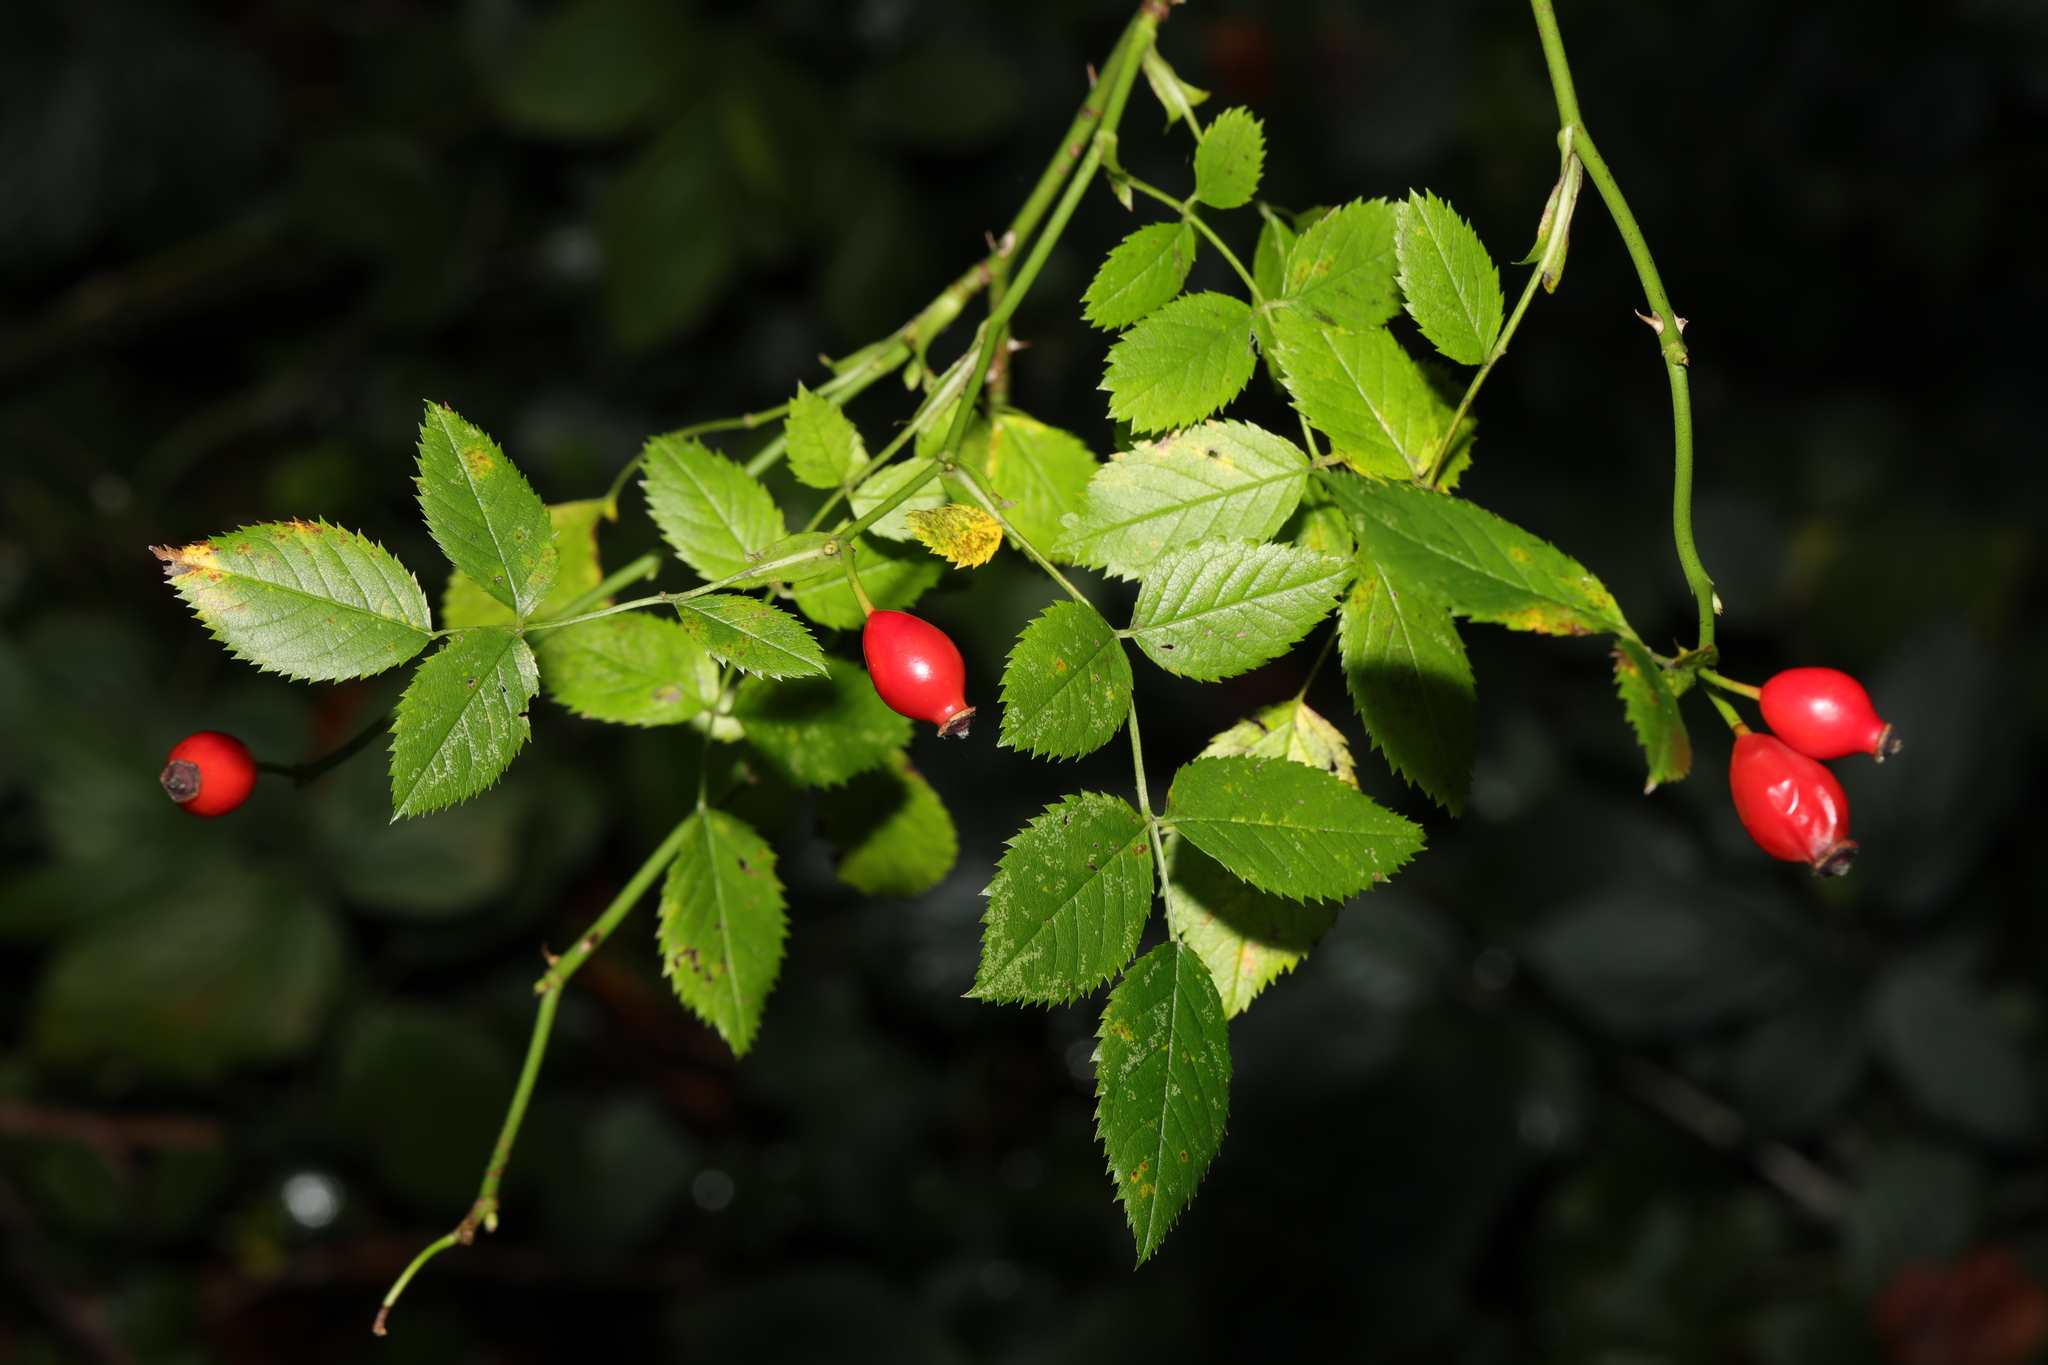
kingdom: Plantae
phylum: Tracheophyta
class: Magnoliopsida
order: Rosales
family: Rosaceae
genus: Rosa
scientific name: Rosa canina
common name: Dog rose
